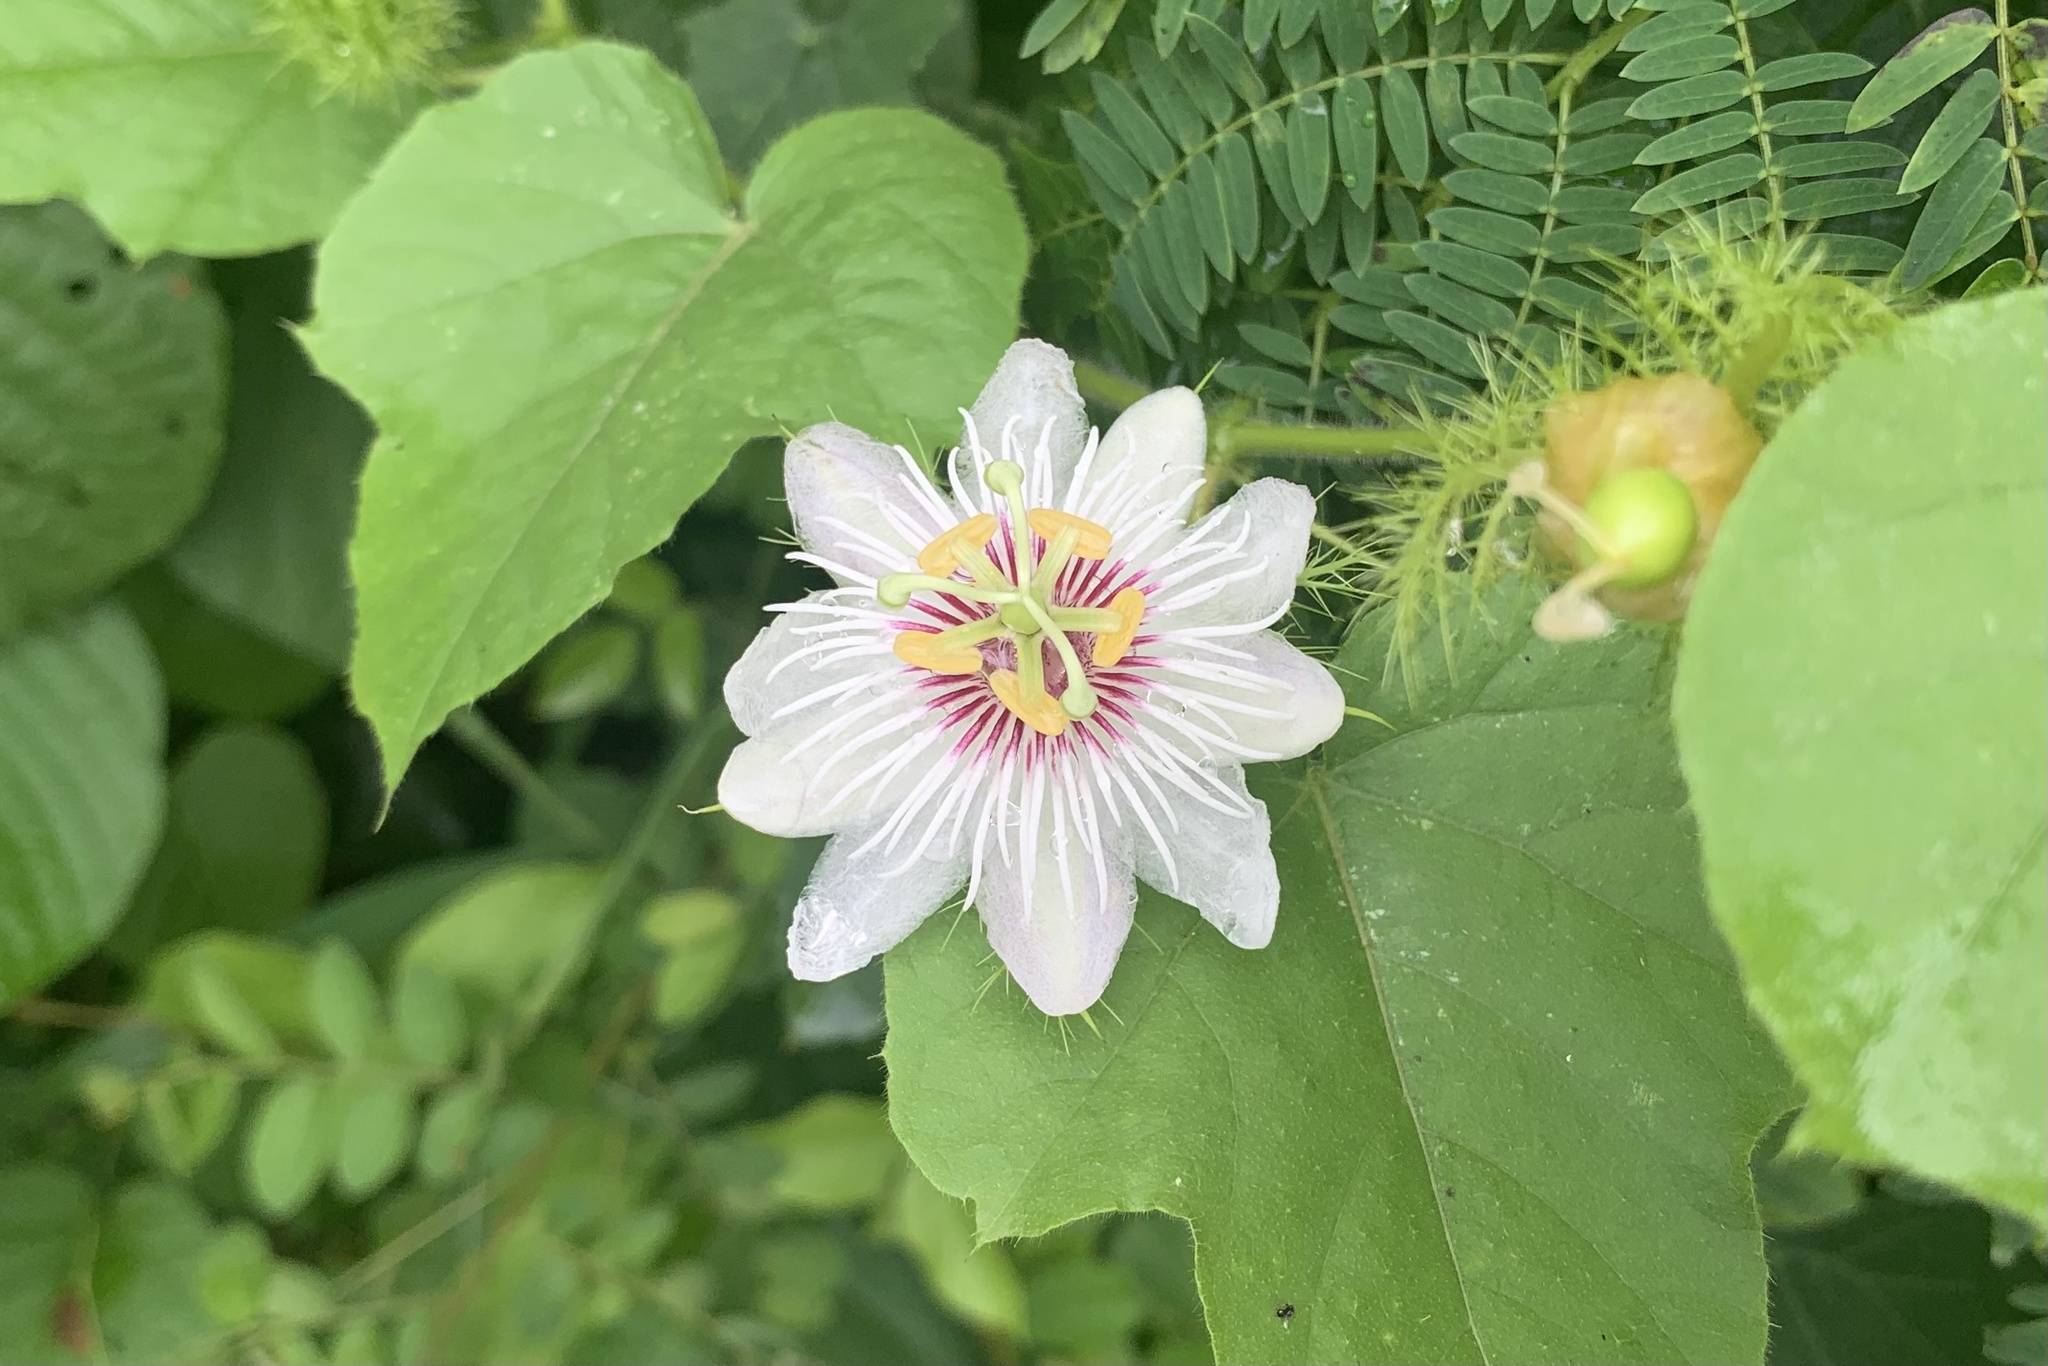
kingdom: Plantae
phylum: Tracheophyta
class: Magnoliopsida
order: Malpighiales
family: Passifloraceae
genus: Passiflora
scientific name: Passiflora vesicaria
